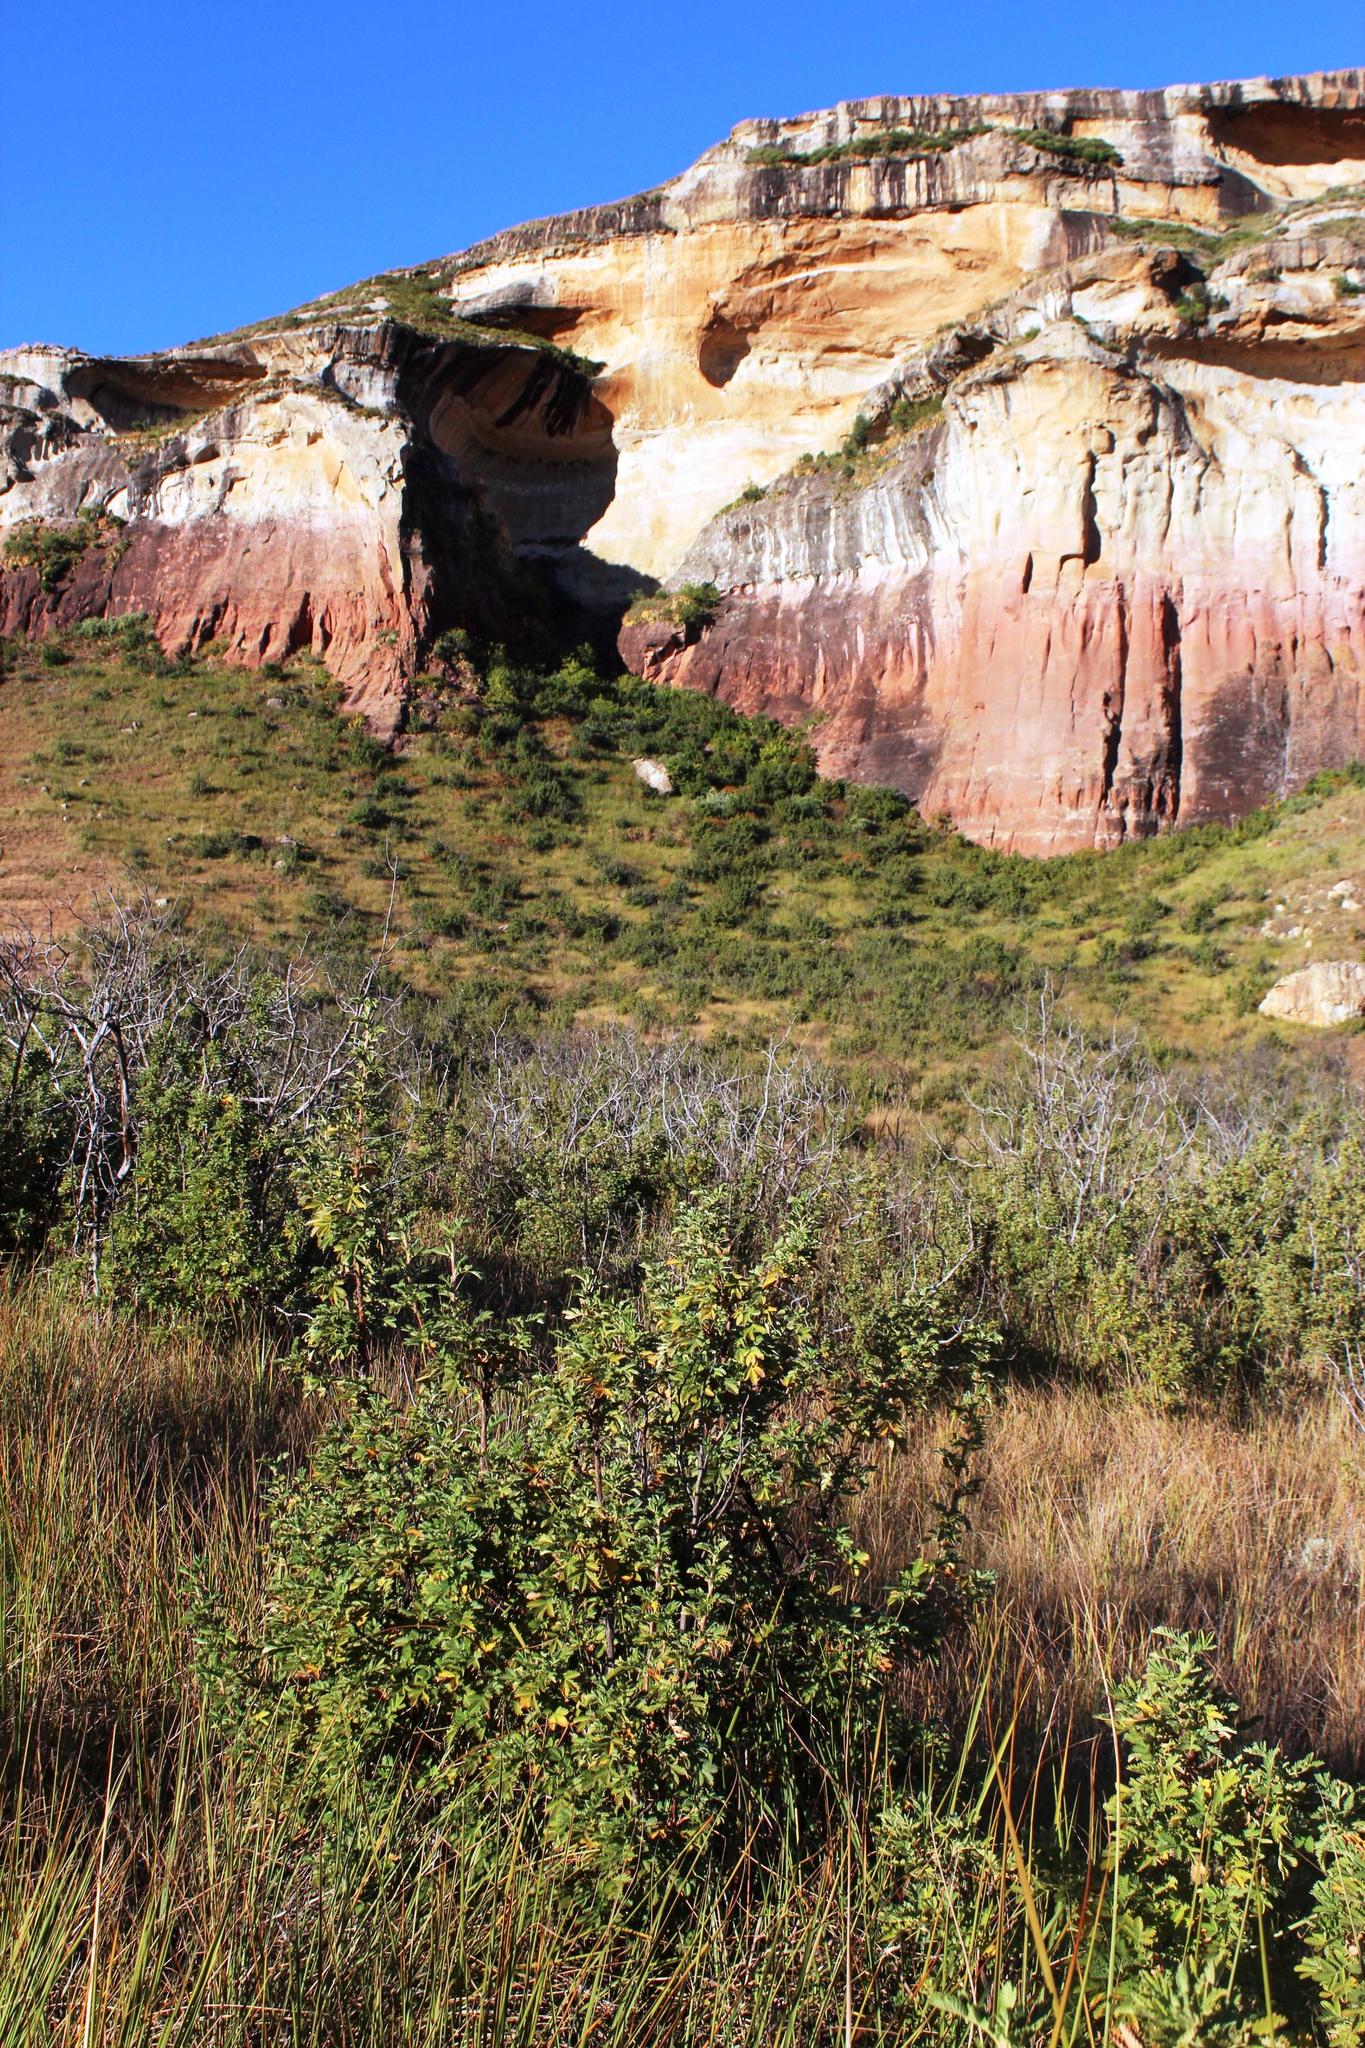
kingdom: Plantae
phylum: Tracheophyta
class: Magnoliopsida
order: Rosales
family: Rosaceae
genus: Leucosidea
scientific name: Leucosidea sericea
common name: Oldwood
